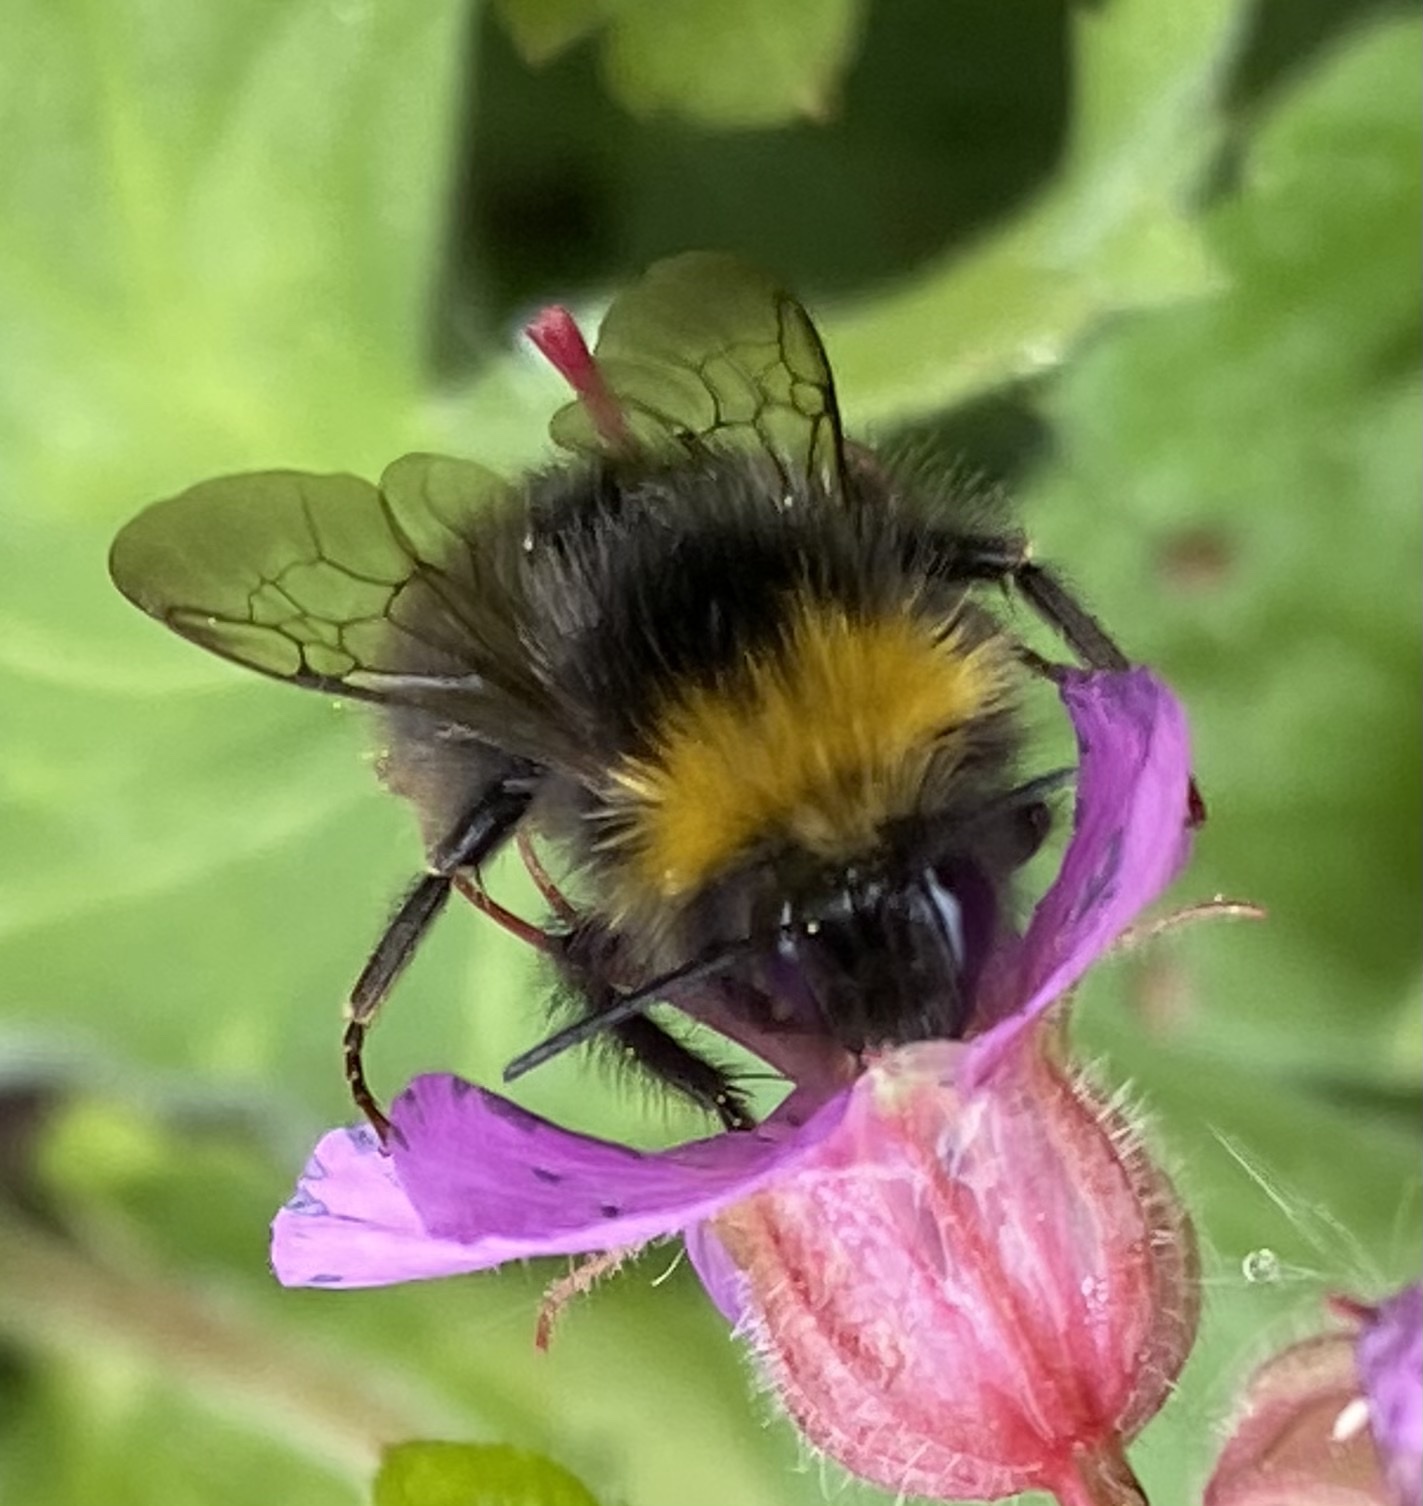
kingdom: Animalia
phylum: Arthropoda
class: Insecta
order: Hymenoptera
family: Apidae
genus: Bombus
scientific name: Bombus pratorum
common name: Early humble-bee
